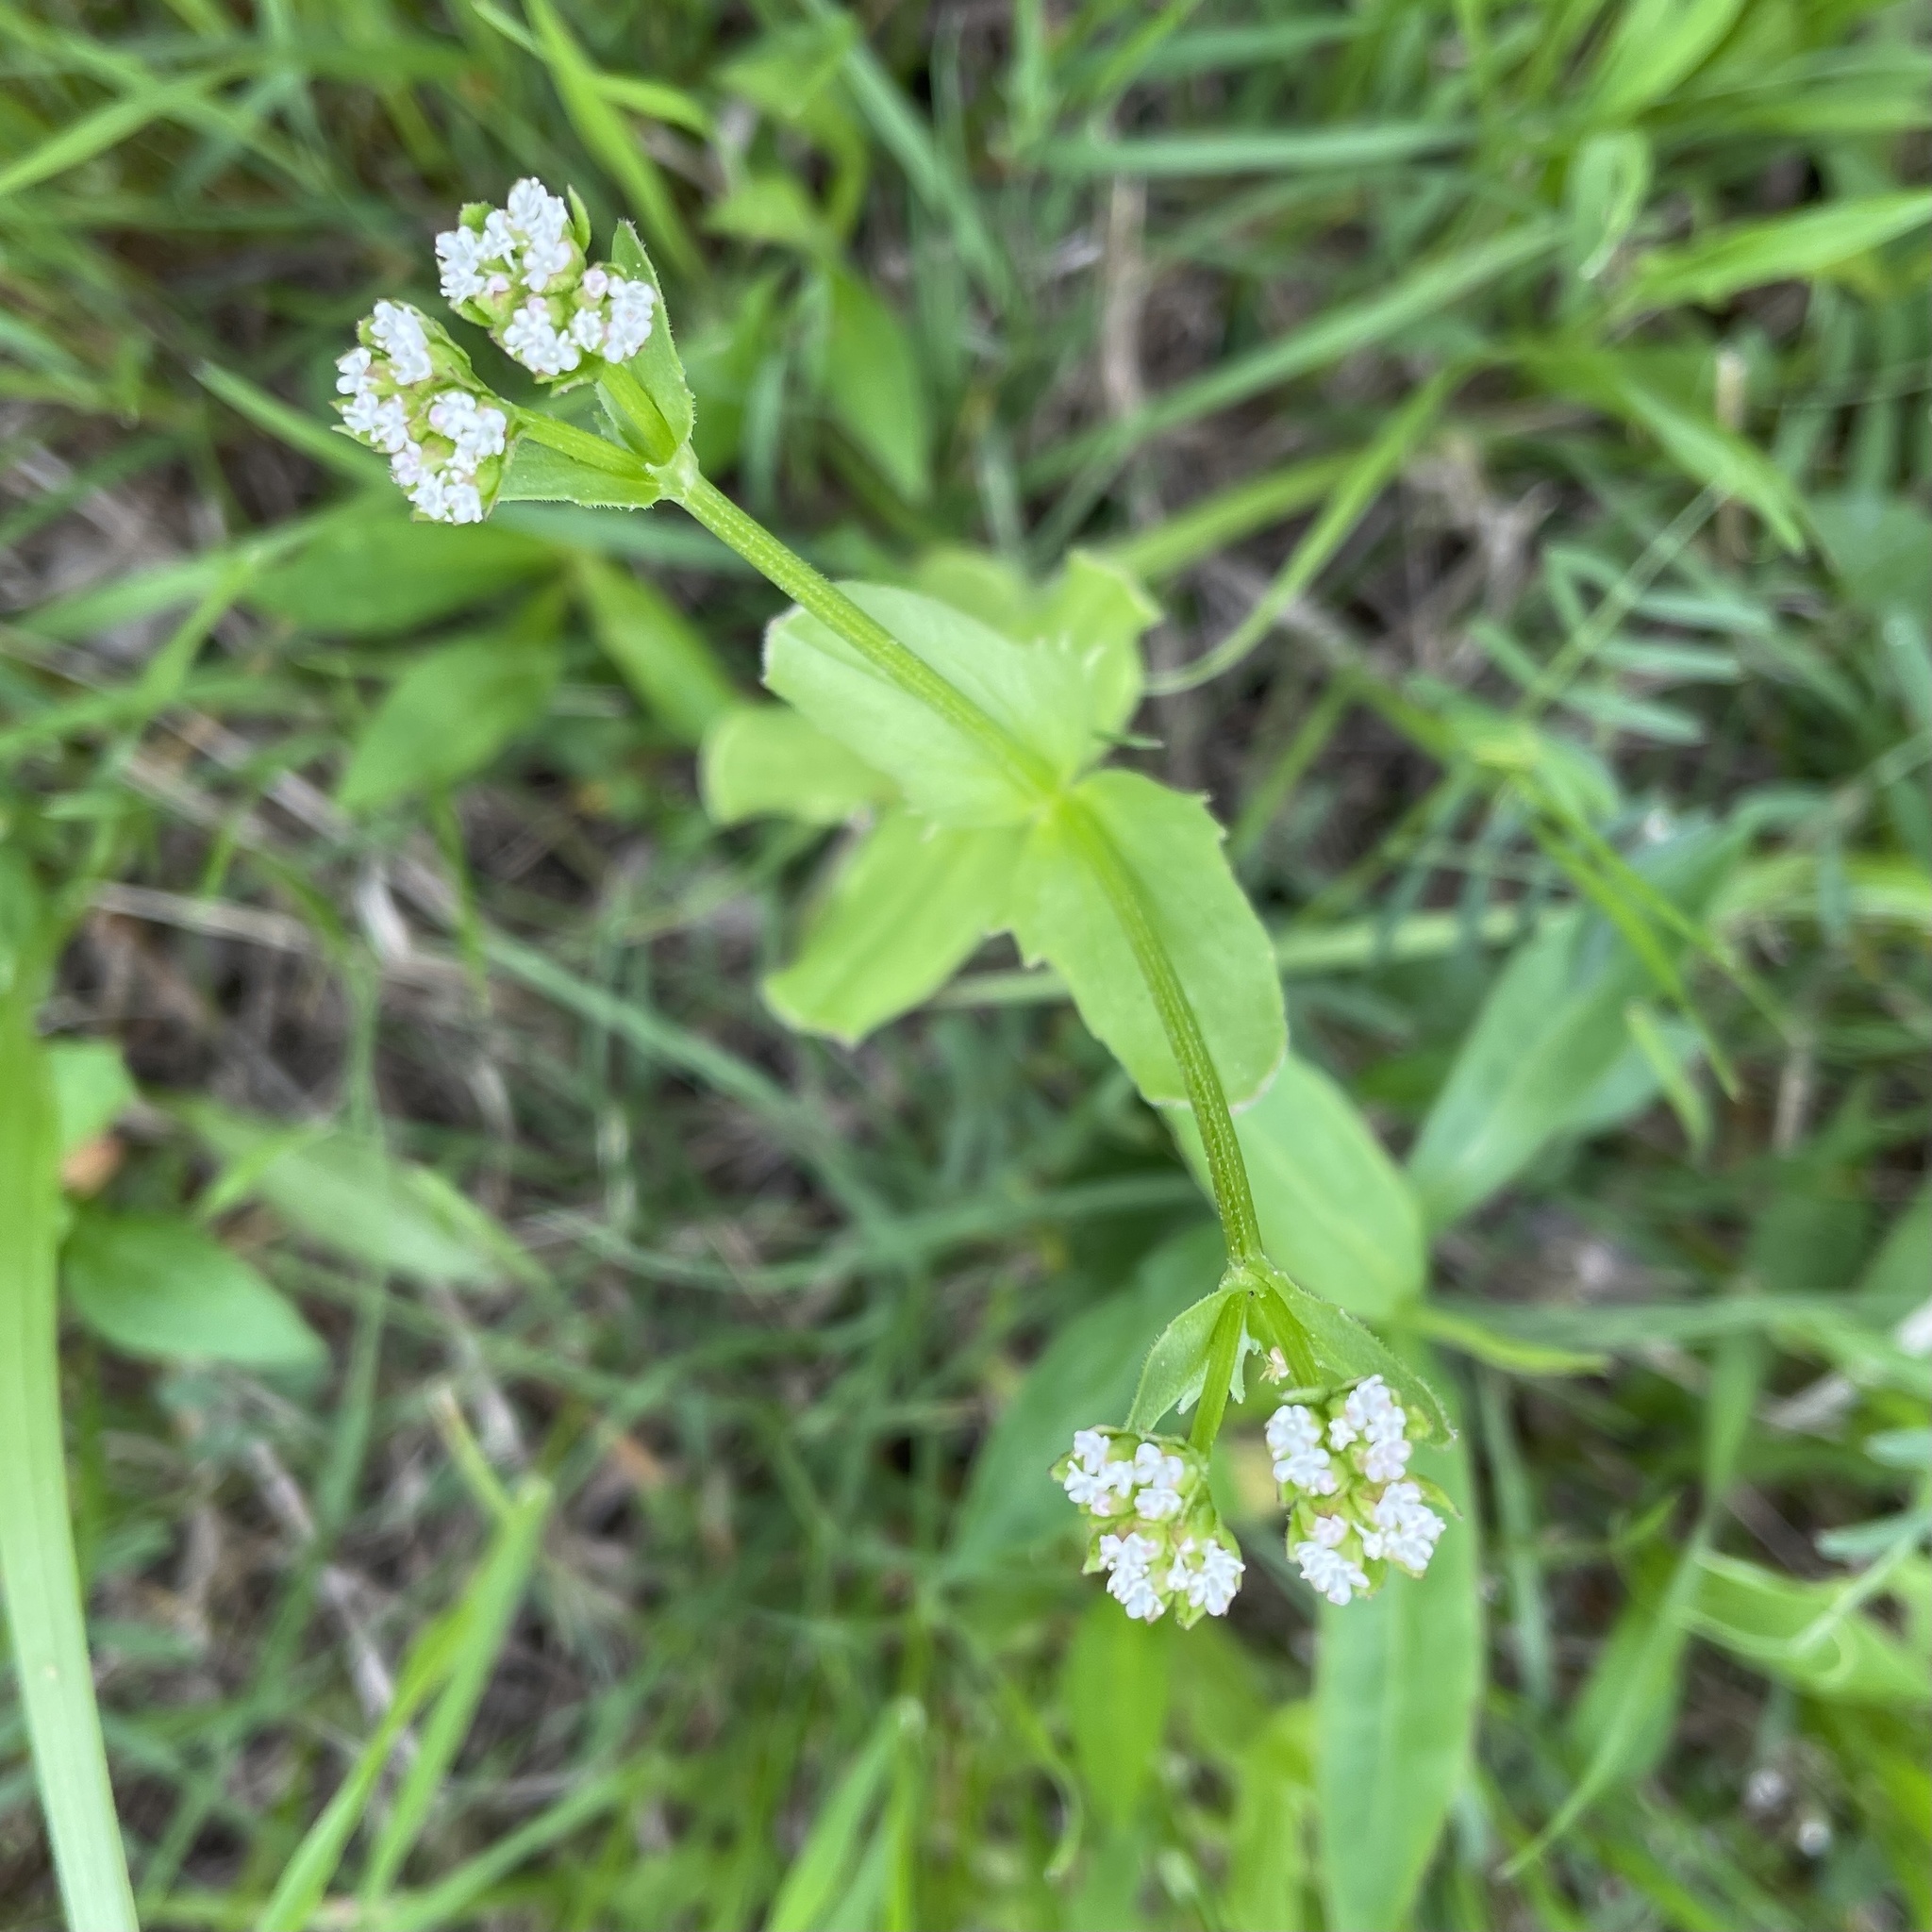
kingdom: Plantae
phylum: Tracheophyta
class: Magnoliopsida
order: Dipsacales
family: Caprifoliaceae
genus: Valerianella
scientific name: Valerianella radiata
